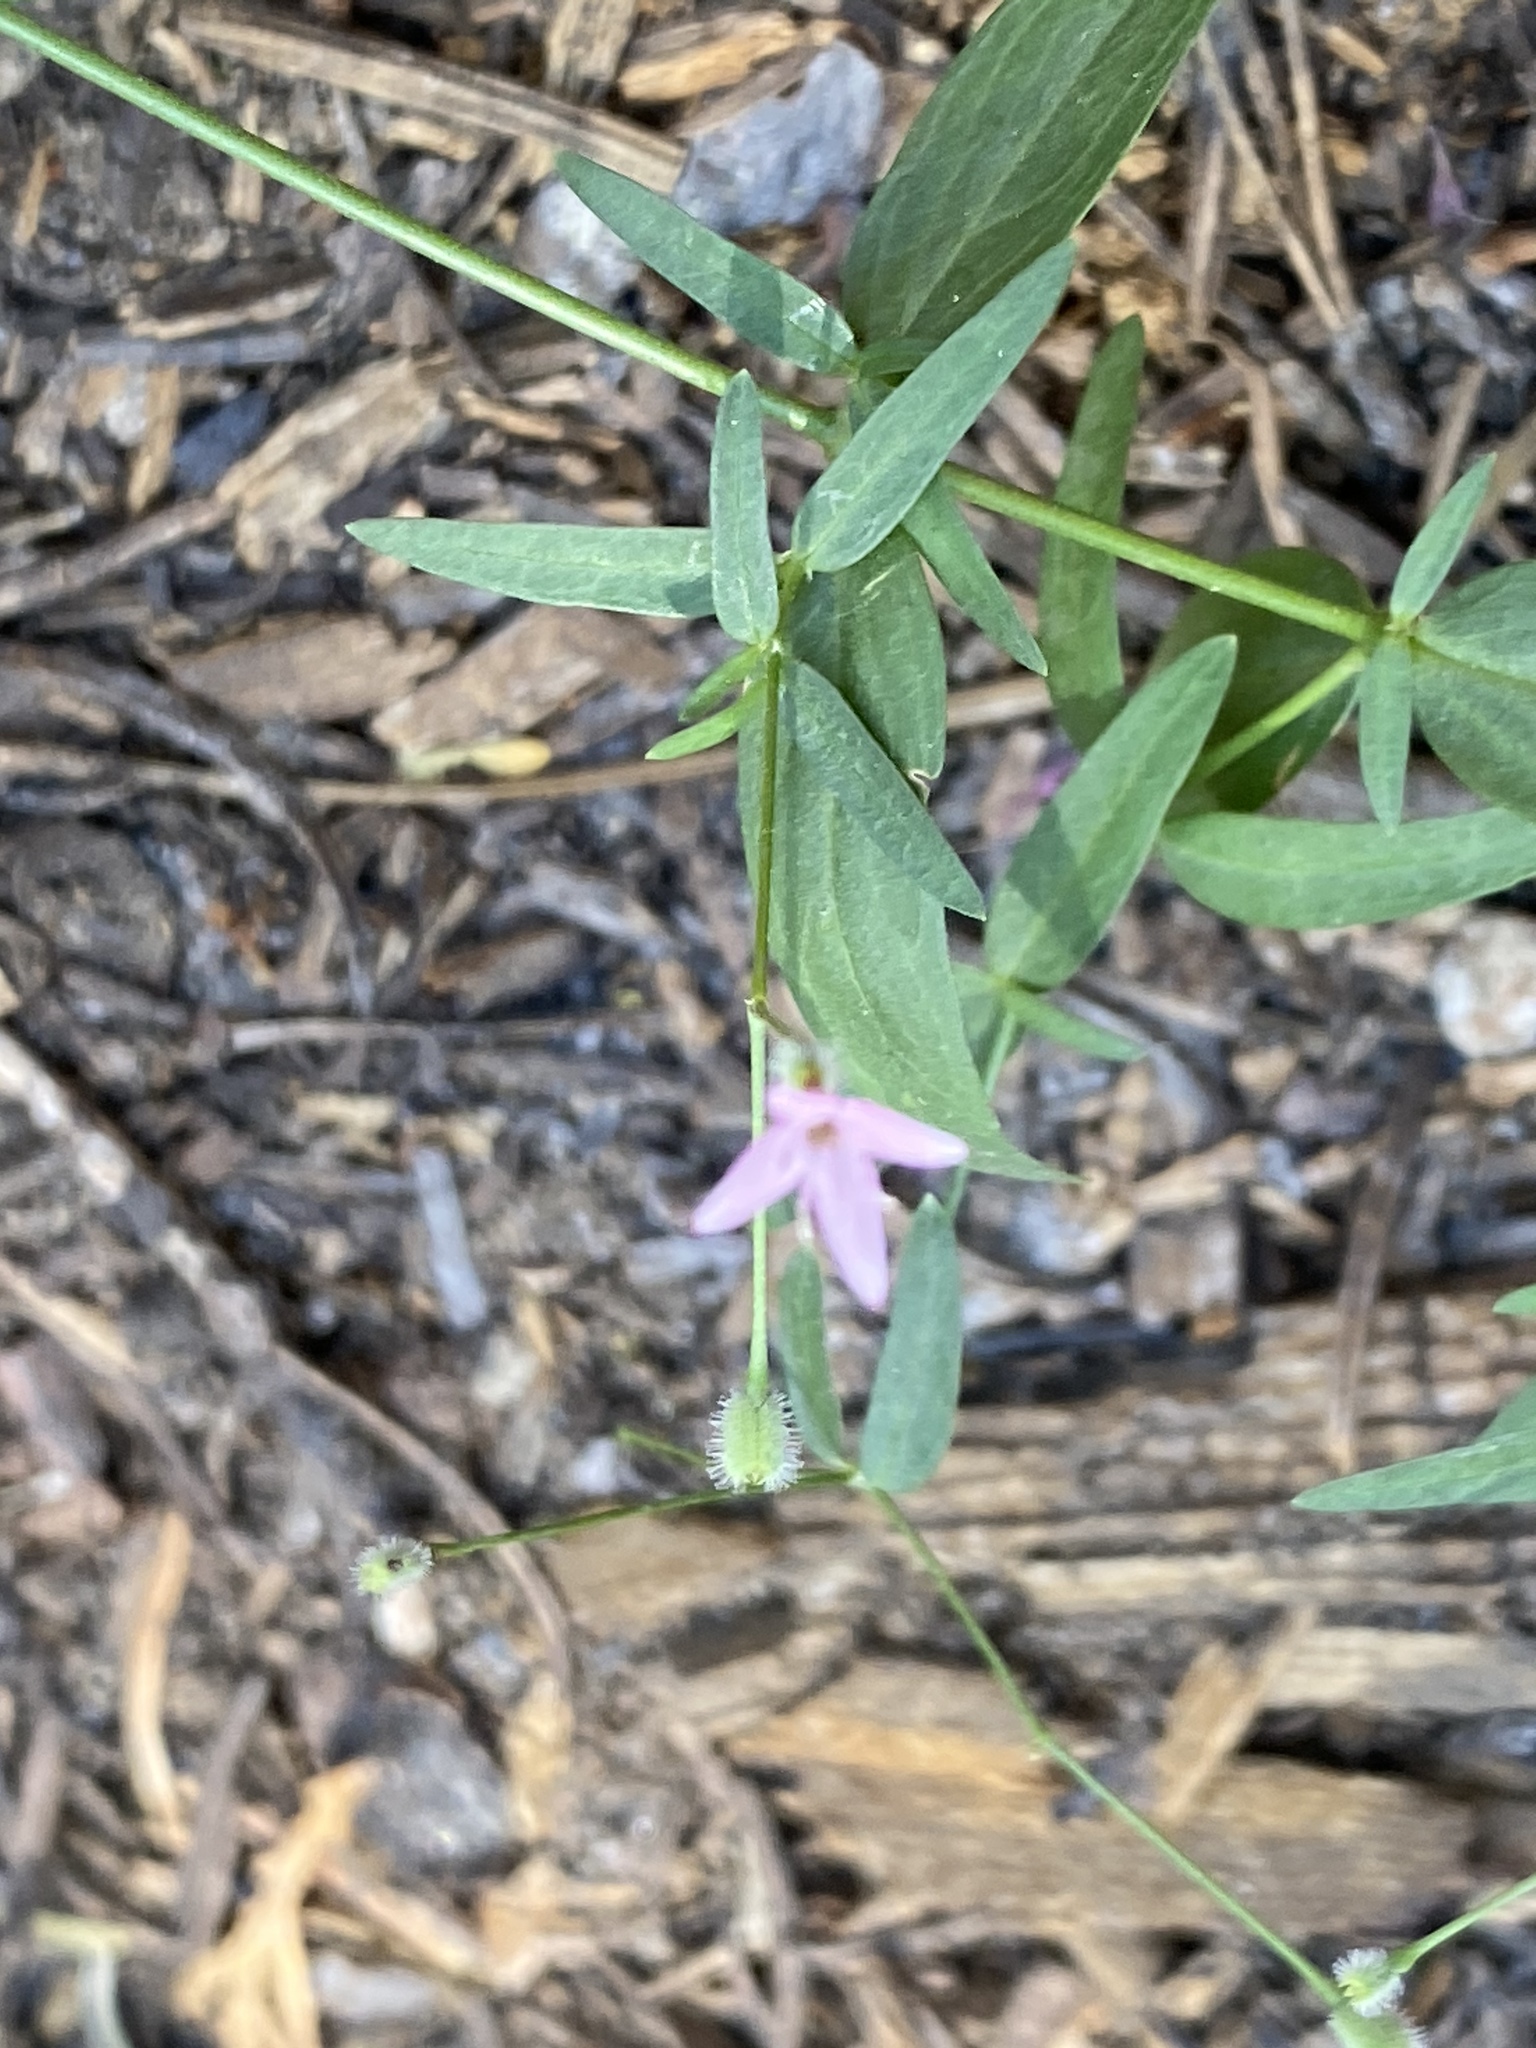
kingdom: Plantae
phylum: Tracheophyta
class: Magnoliopsida
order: Gentianales
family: Rubiaceae
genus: Kelloggia
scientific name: Kelloggia galioides
